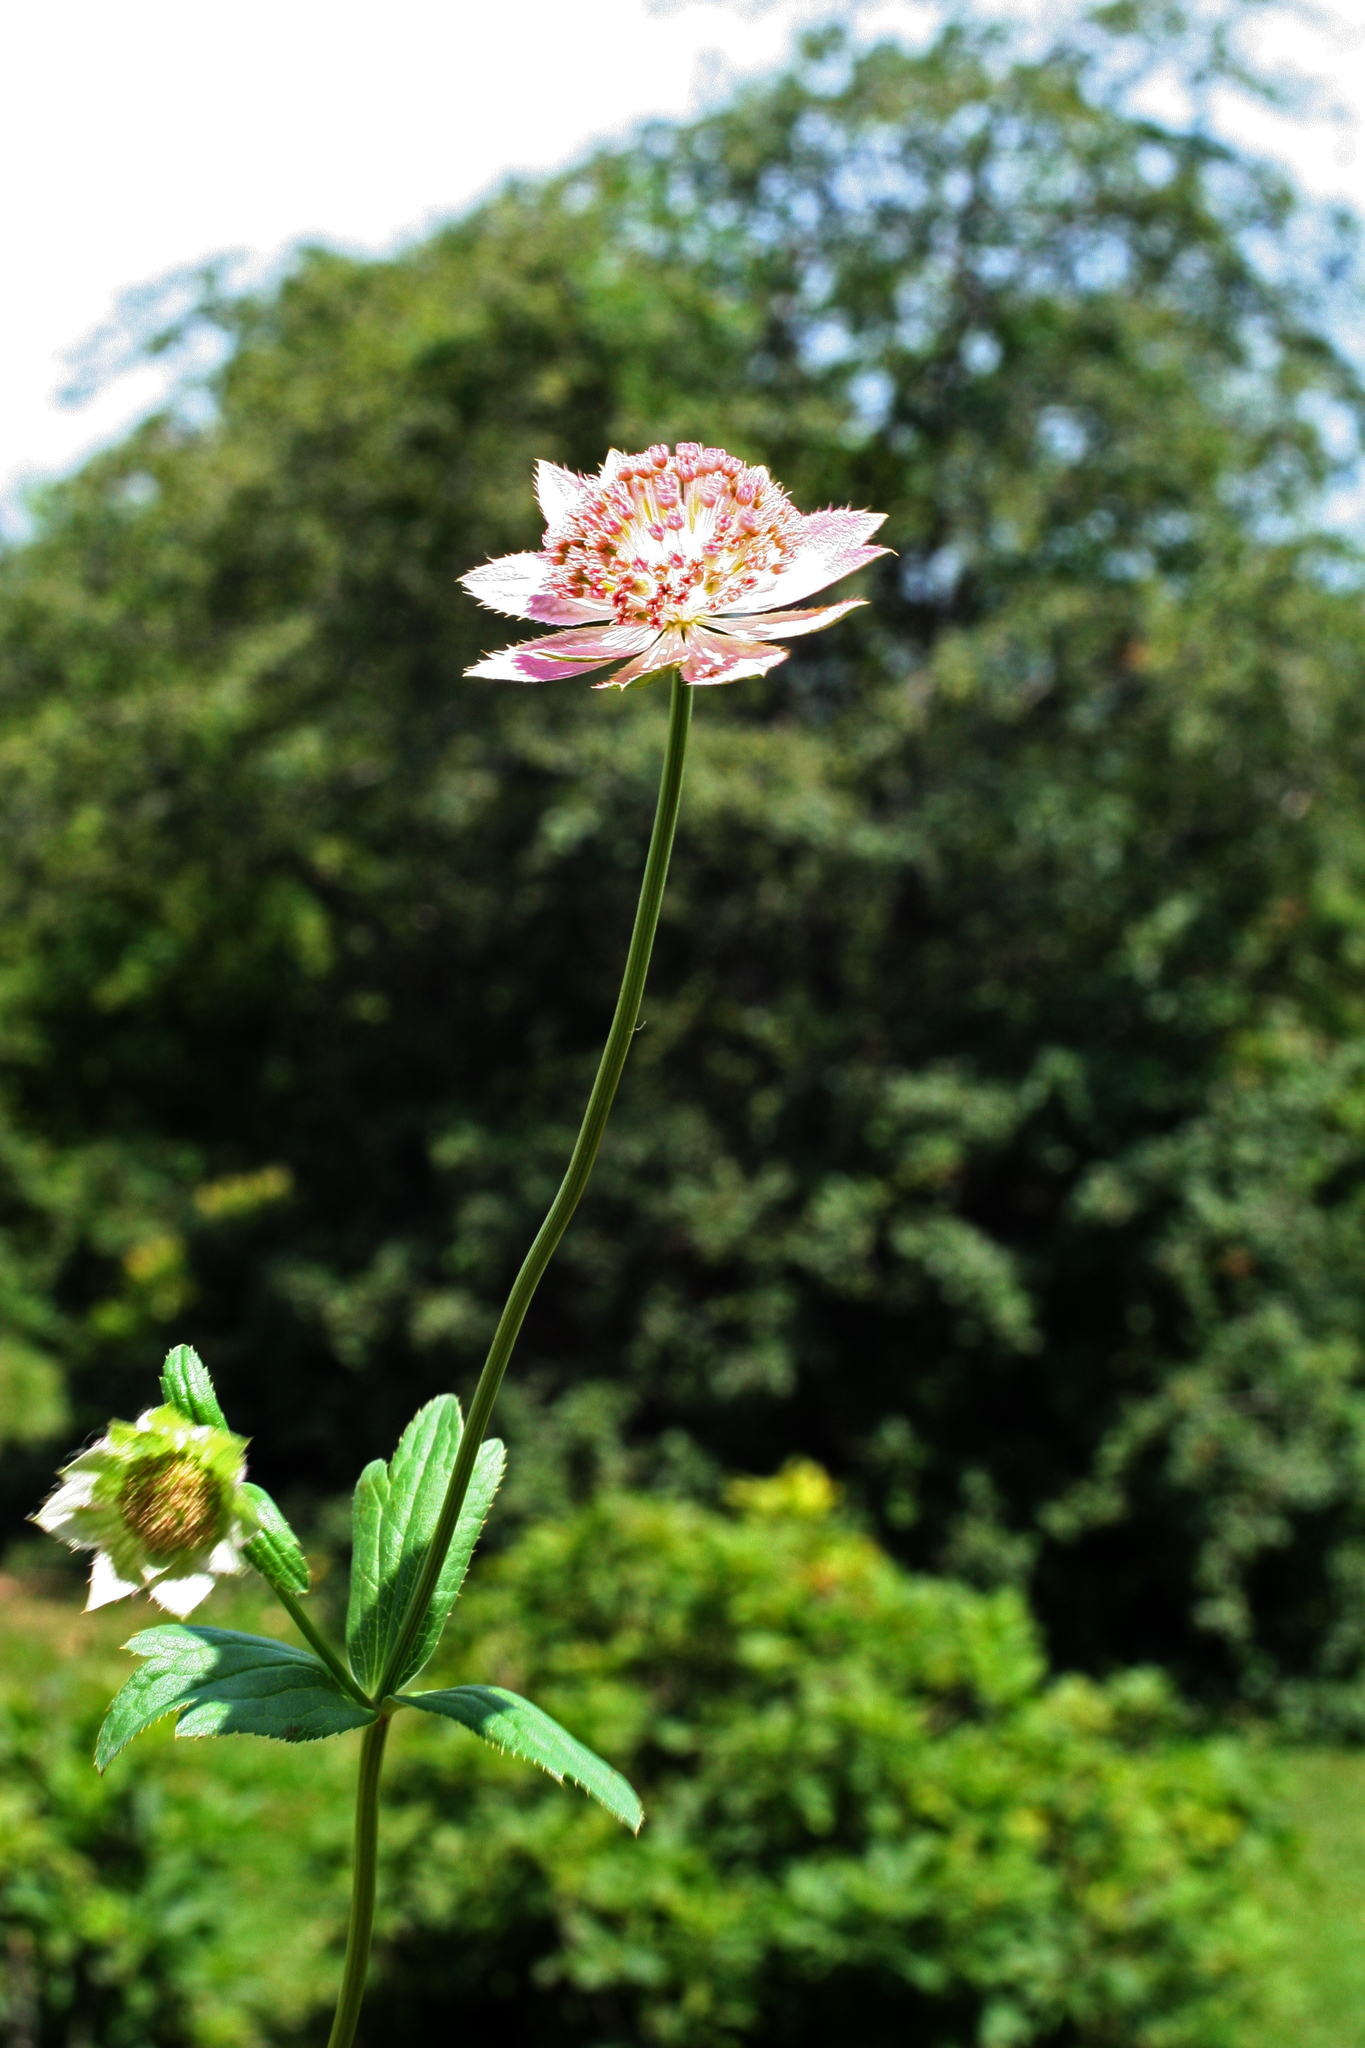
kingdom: Plantae
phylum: Tracheophyta
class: Magnoliopsida
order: Apiales
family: Apiaceae
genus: Astrantia
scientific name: Astrantia maxima
